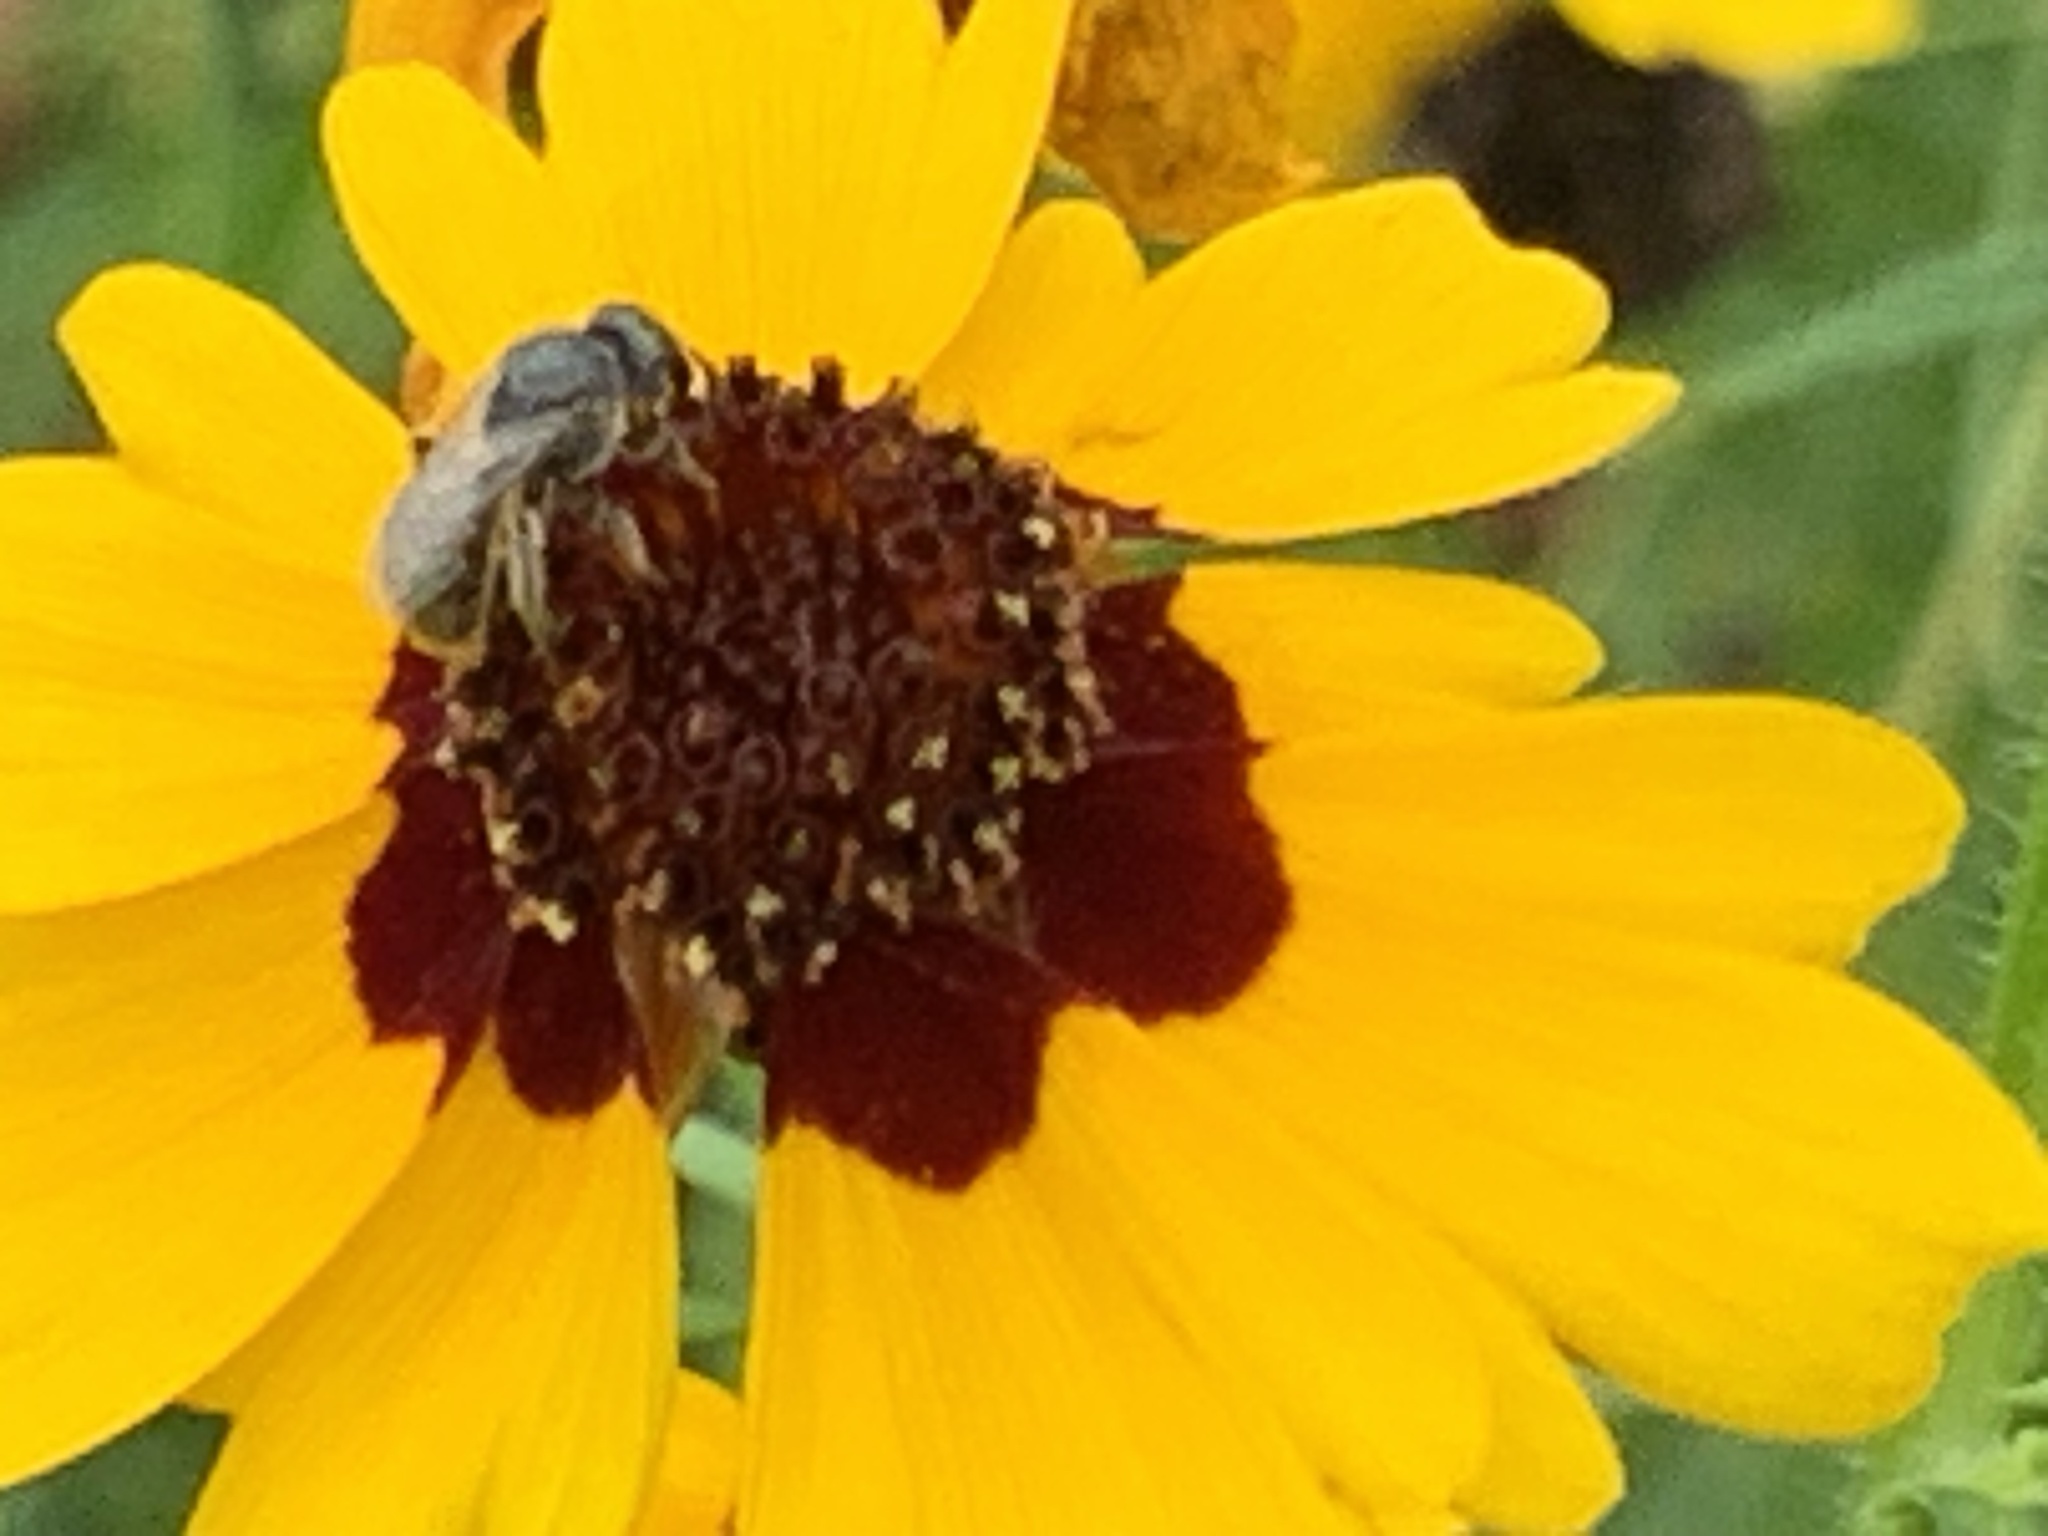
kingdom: Animalia
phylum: Arthropoda
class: Insecta
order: Hymenoptera
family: Halictidae
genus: Lasioglossum
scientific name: Lasioglossum
